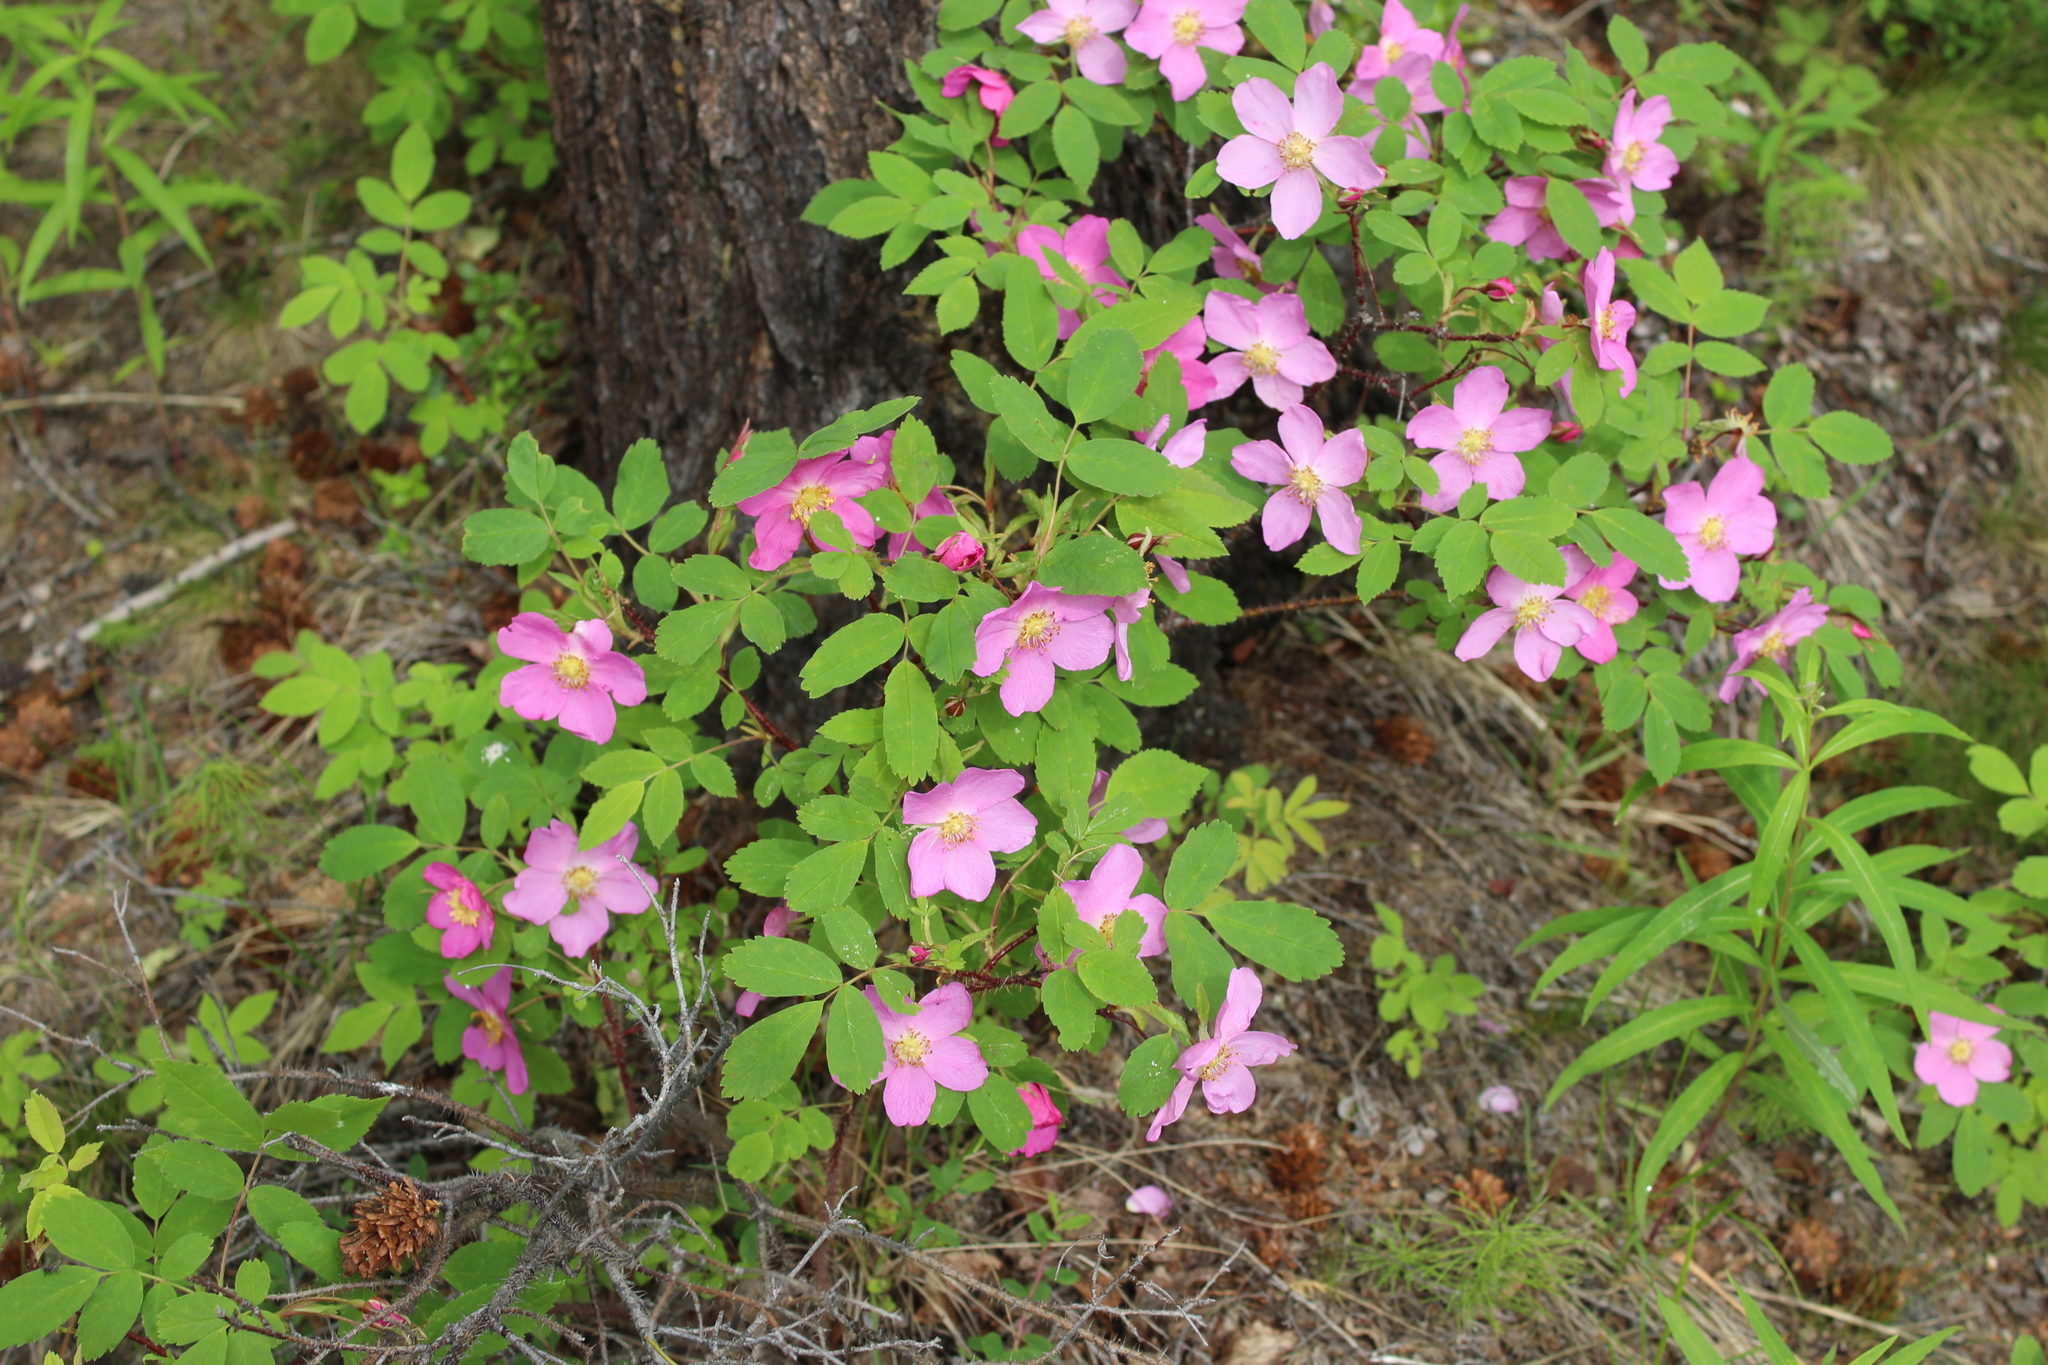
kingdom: Plantae
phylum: Tracheophyta
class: Magnoliopsida
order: Rosales
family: Rosaceae
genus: Rosa
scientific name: Rosa acicularis
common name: Prickly rose
